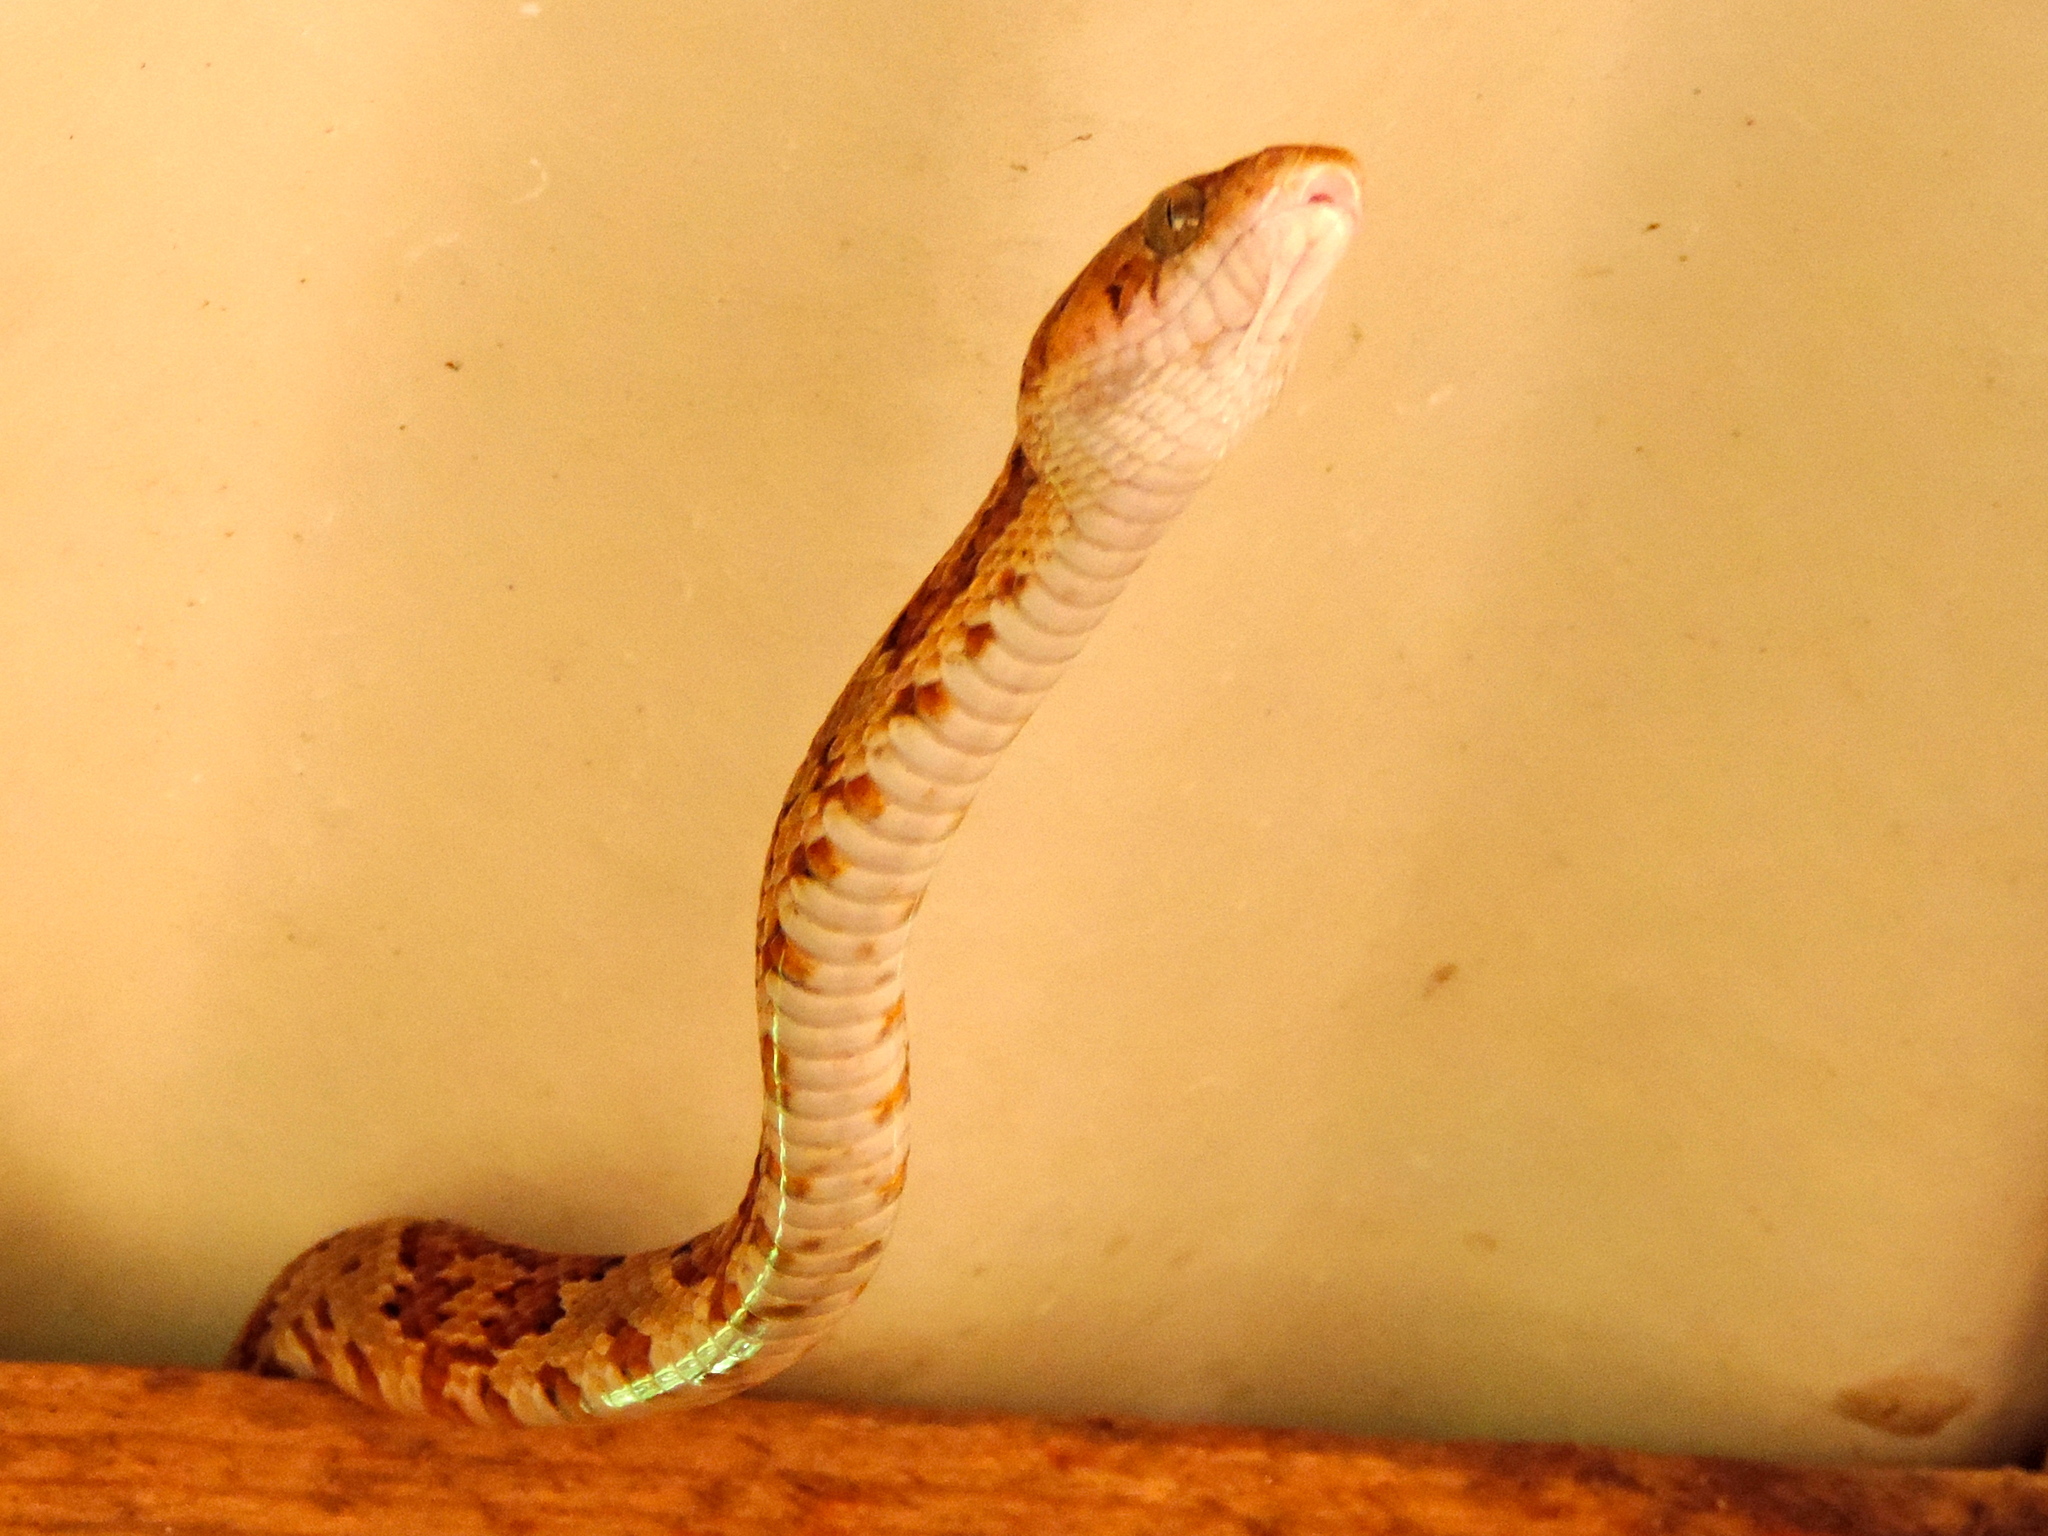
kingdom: Animalia
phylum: Chordata
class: Squamata
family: Colubridae
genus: Trimorphodon
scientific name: Trimorphodon paucimaculatus
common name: Sinaloan lyresnake
